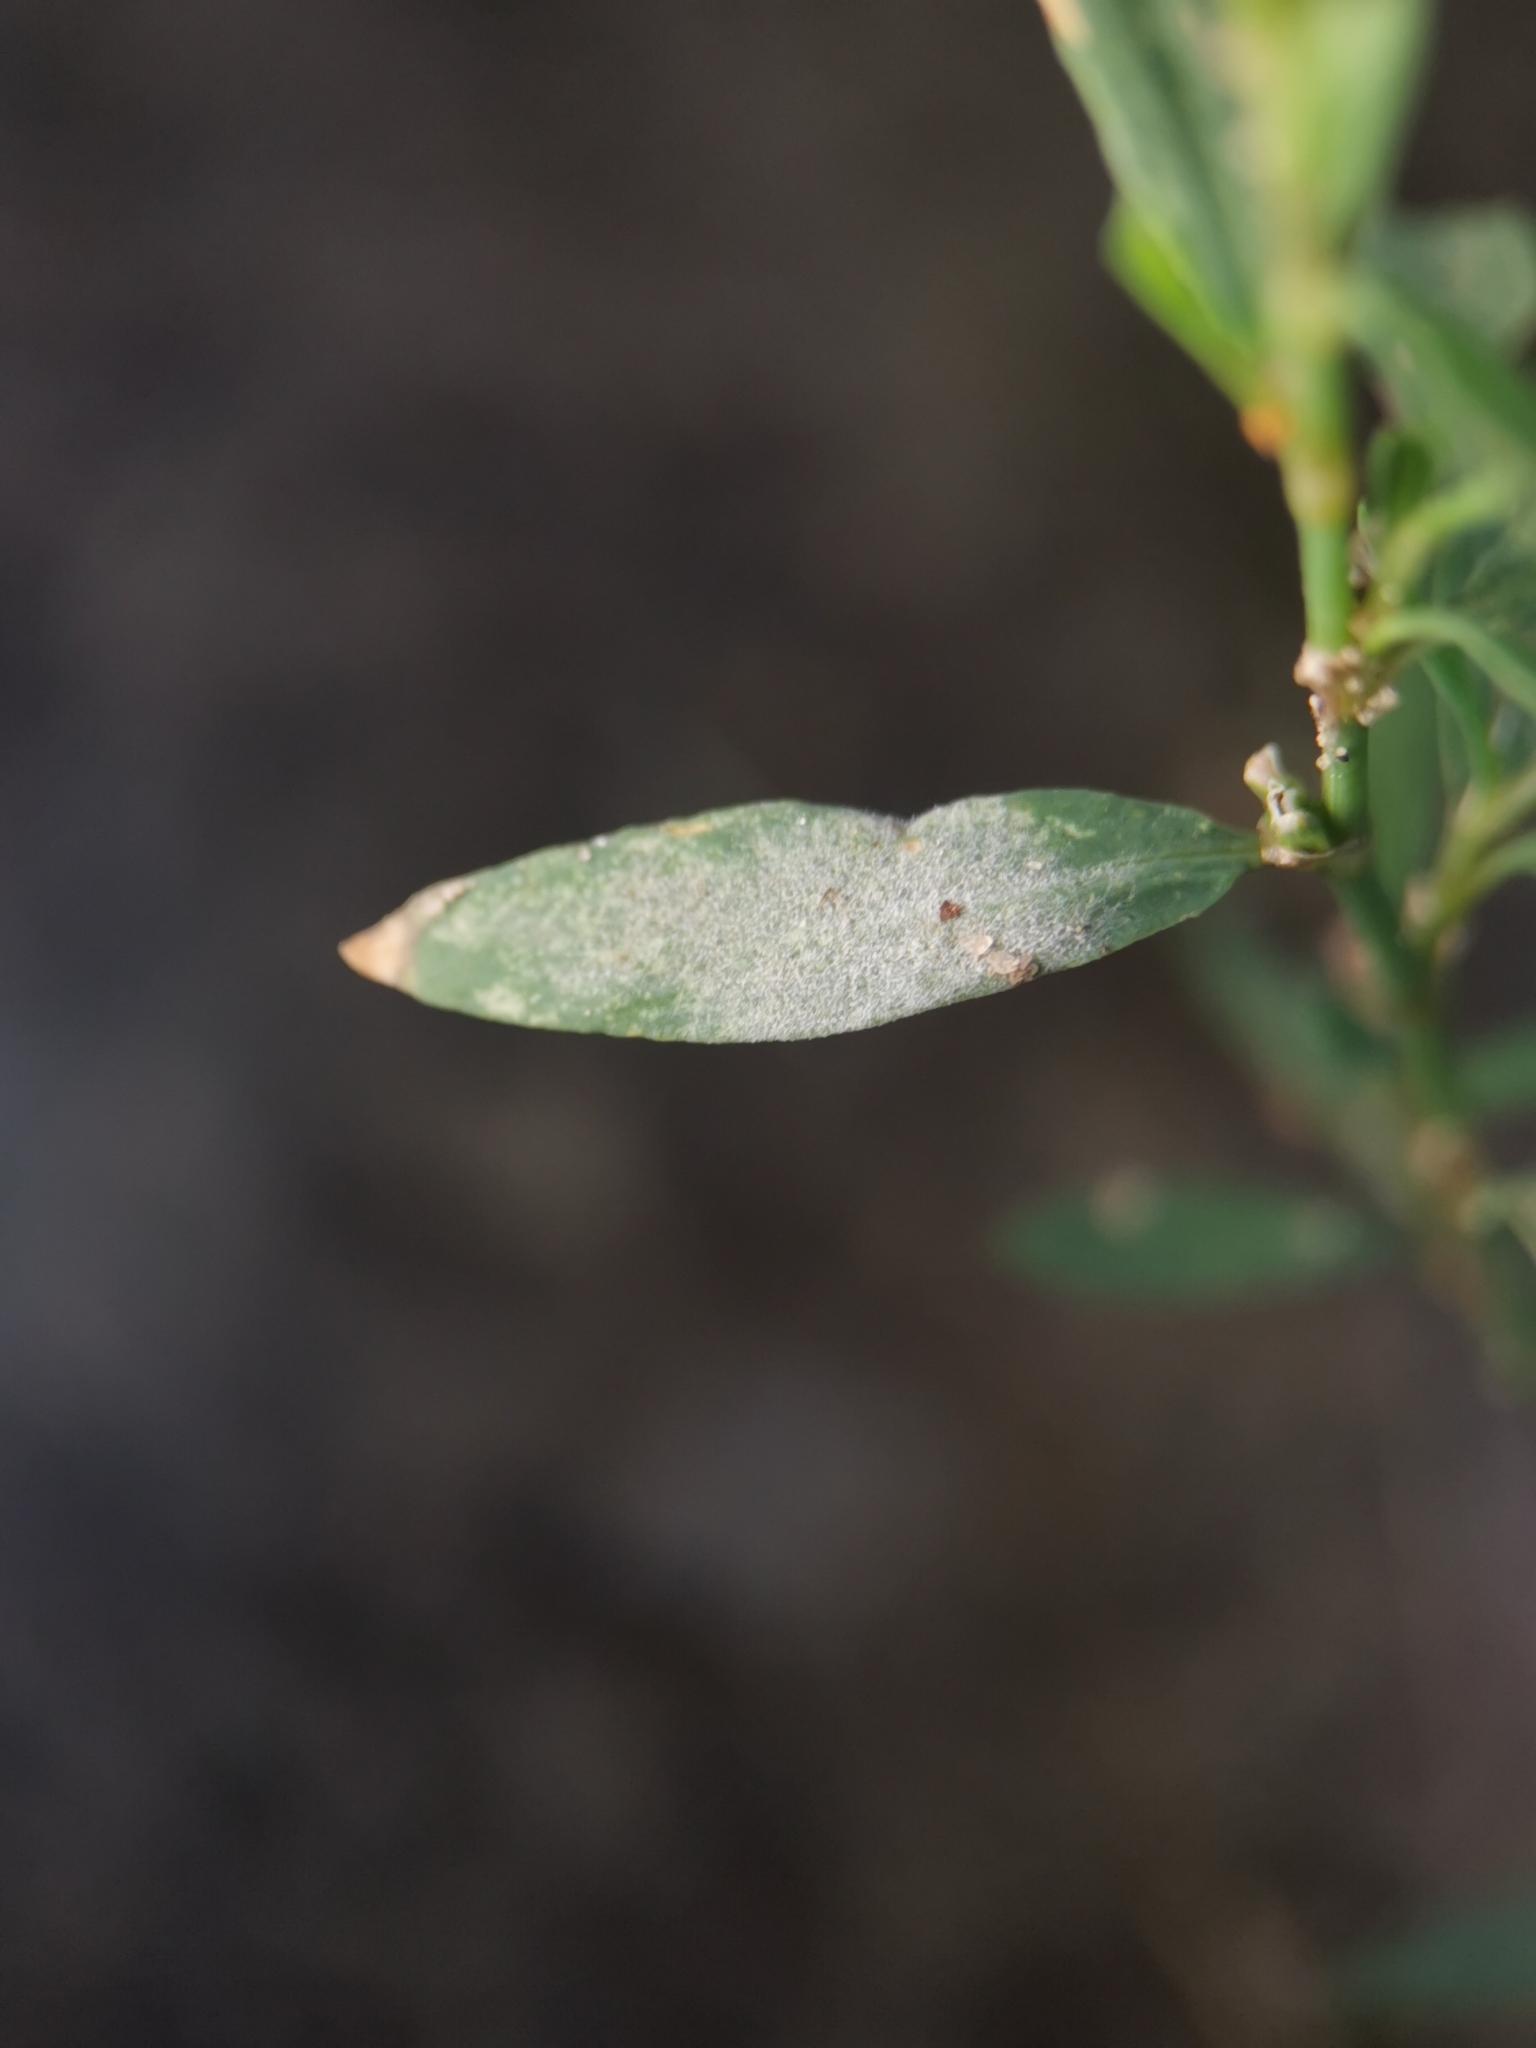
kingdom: Fungi
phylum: Ascomycota
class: Leotiomycetes
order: Helotiales
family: Erysiphaceae
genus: Erysiphe
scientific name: Erysiphe polygoni
